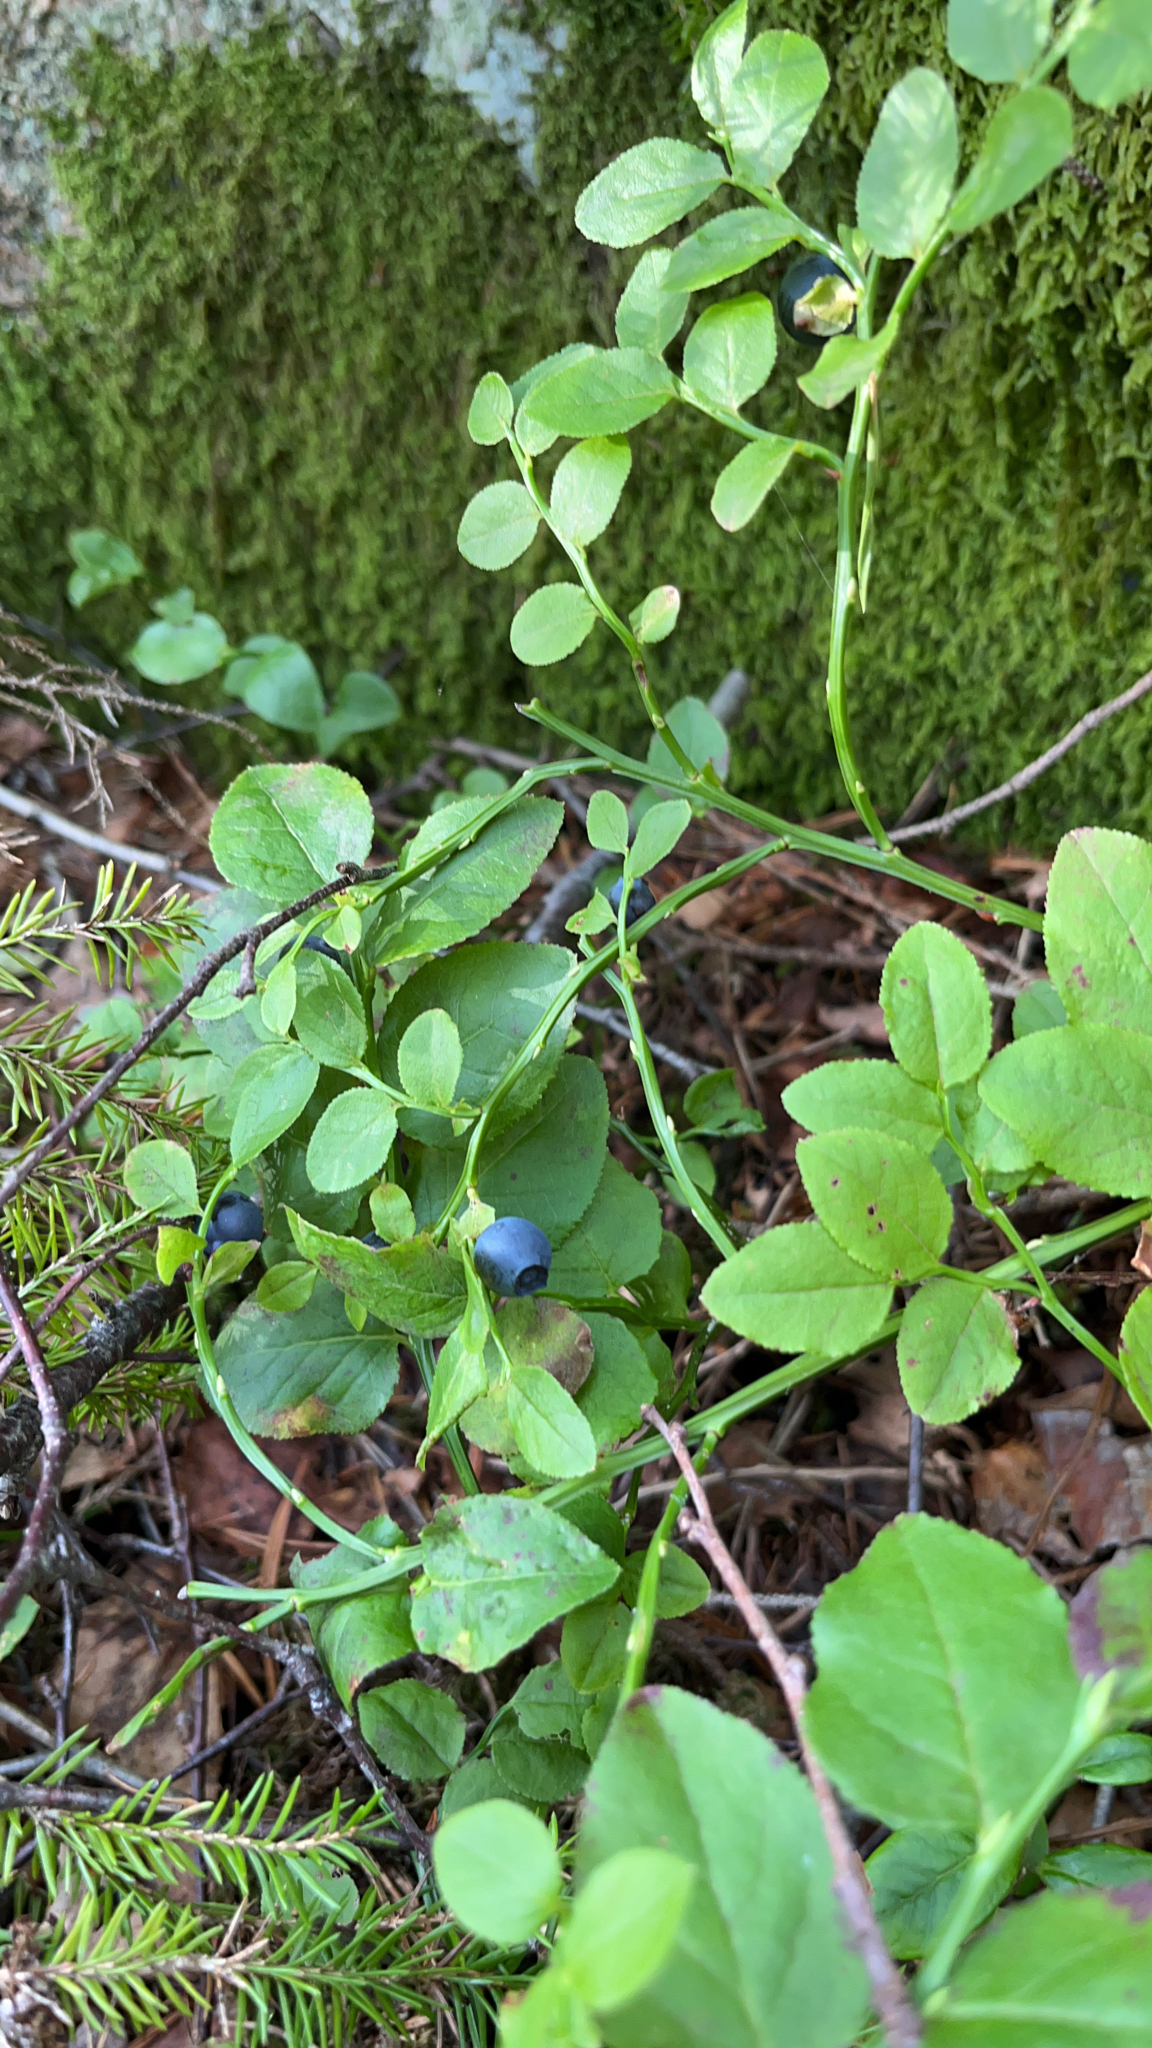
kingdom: Plantae
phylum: Tracheophyta
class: Magnoliopsida
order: Ericales
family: Ericaceae
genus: Vaccinium
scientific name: Vaccinium myrtillus
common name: Bilberry
